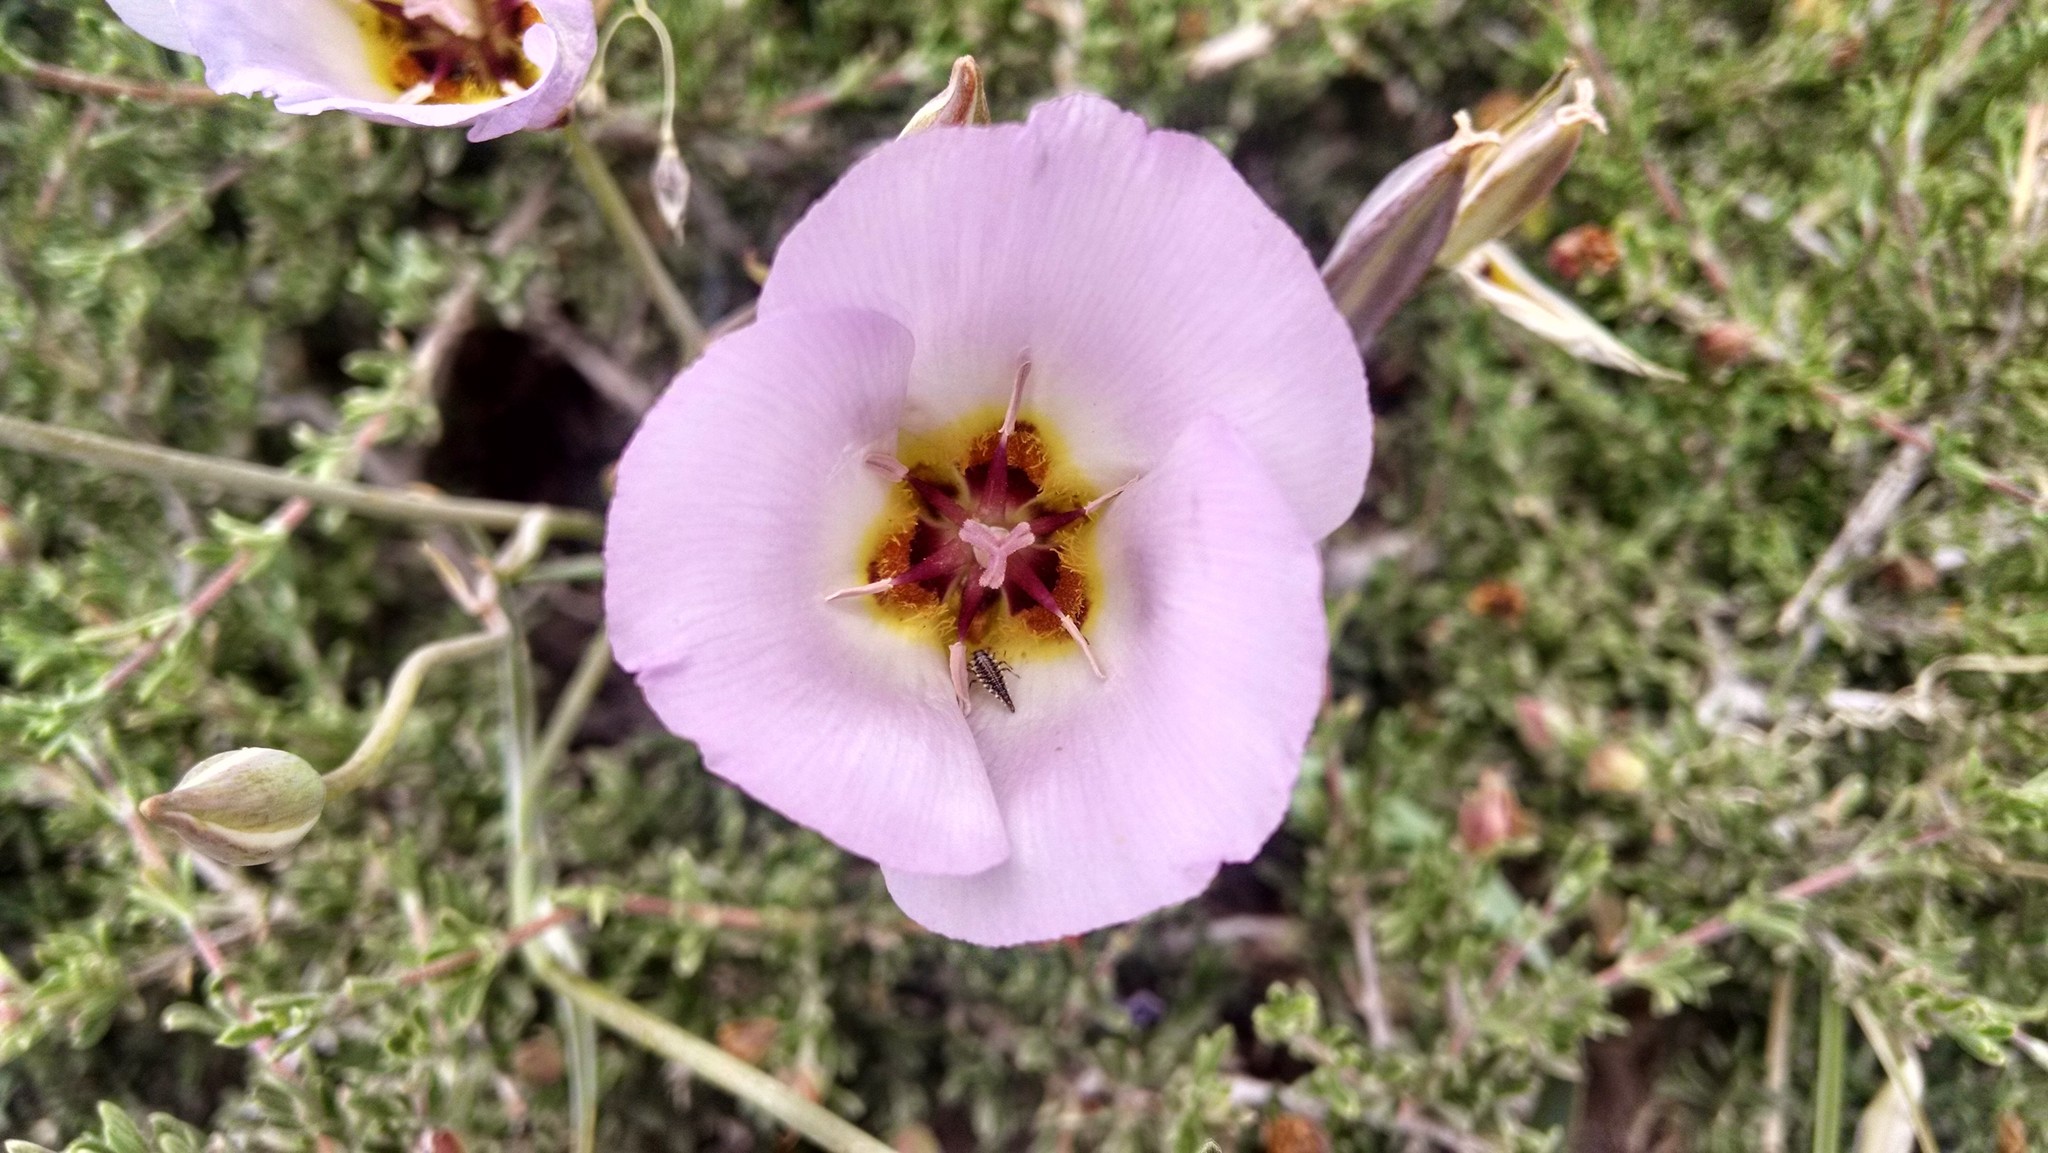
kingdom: Plantae
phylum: Tracheophyta
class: Liliopsida
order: Liliales
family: Liliaceae
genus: Calochortus
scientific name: Calochortus flexuosus
